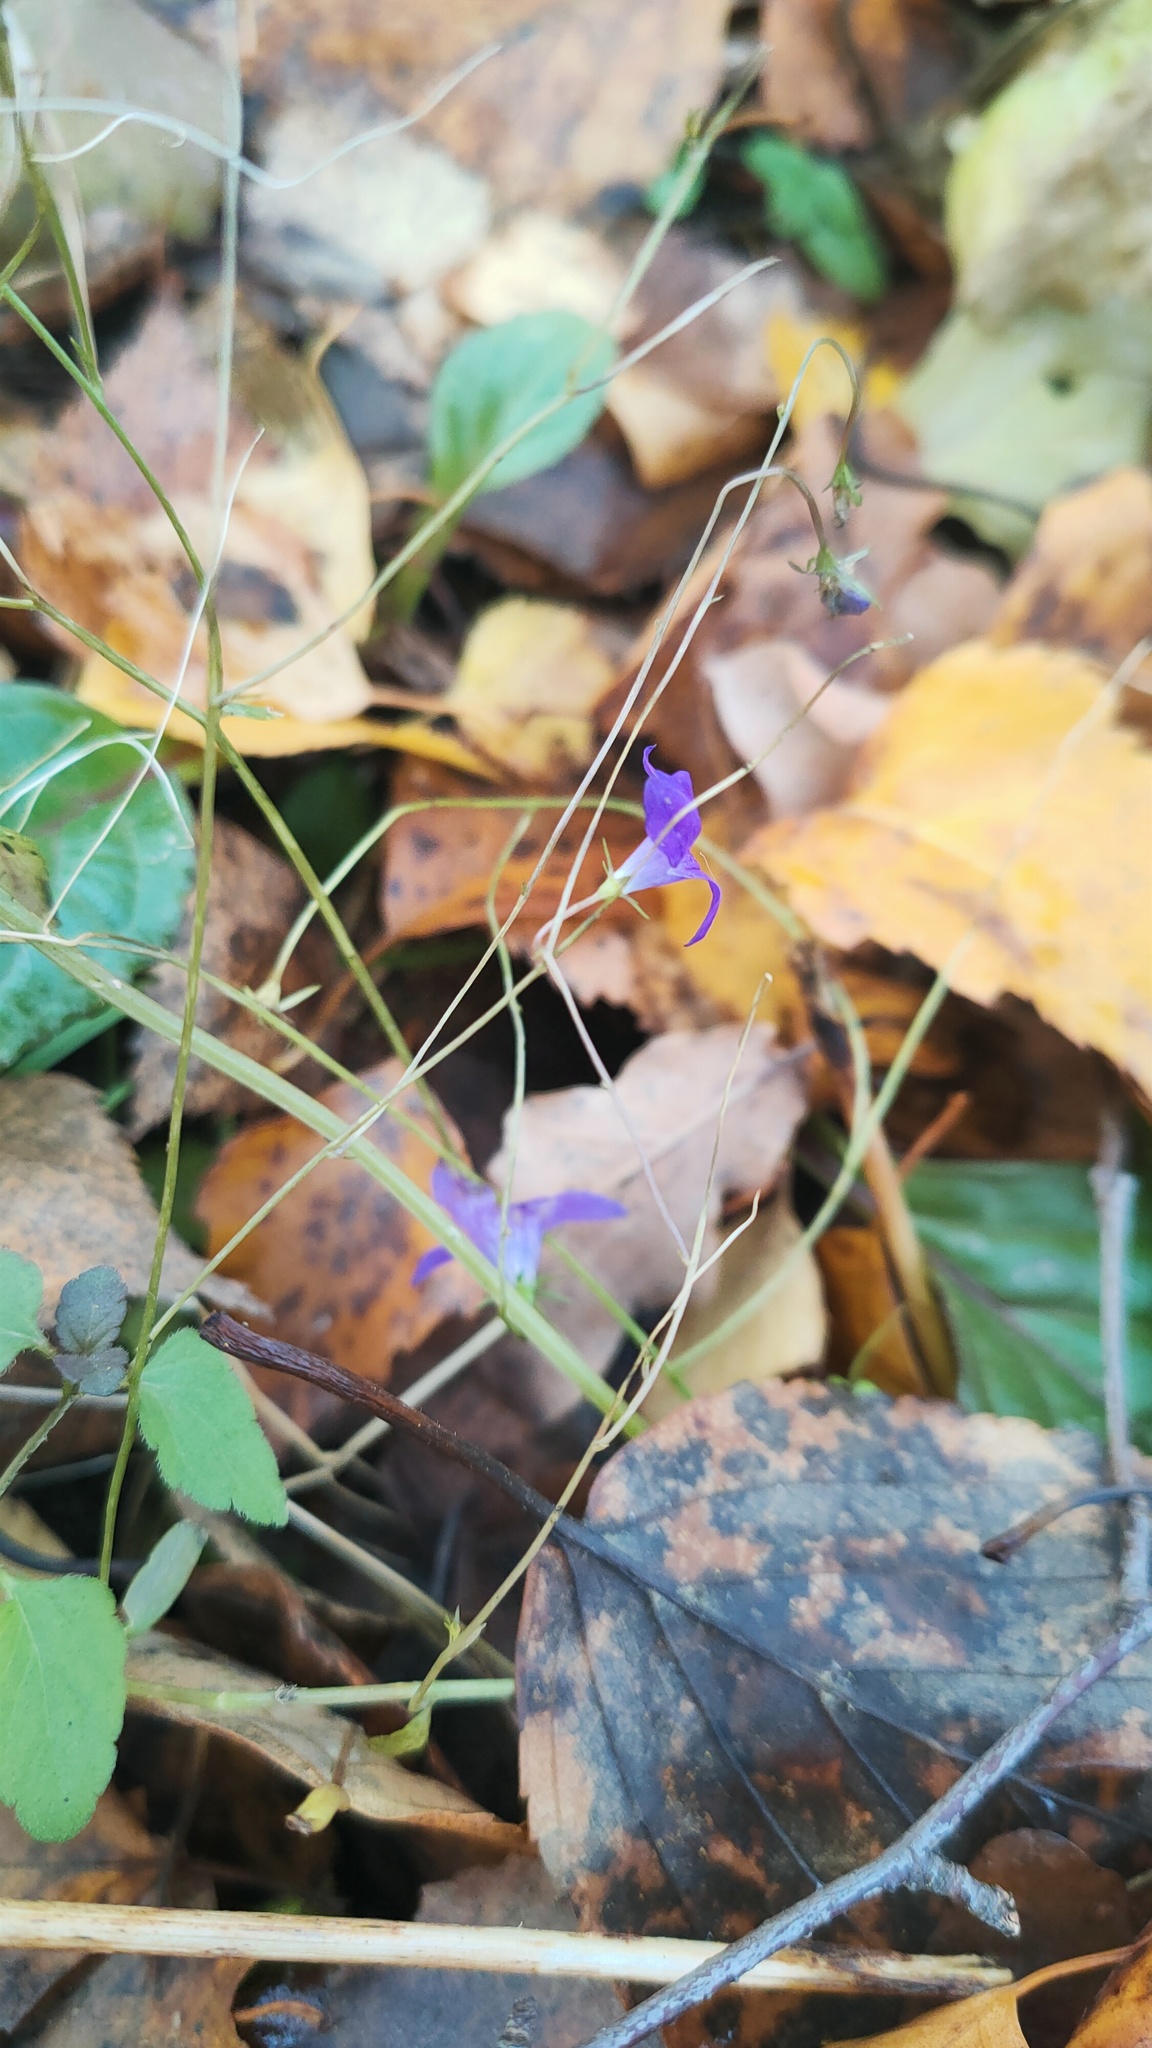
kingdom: Plantae
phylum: Tracheophyta
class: Magnoliopsida
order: Asterales
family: Campanulaceae
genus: Campanula
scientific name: Campanula patula
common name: Spreading bellflower
